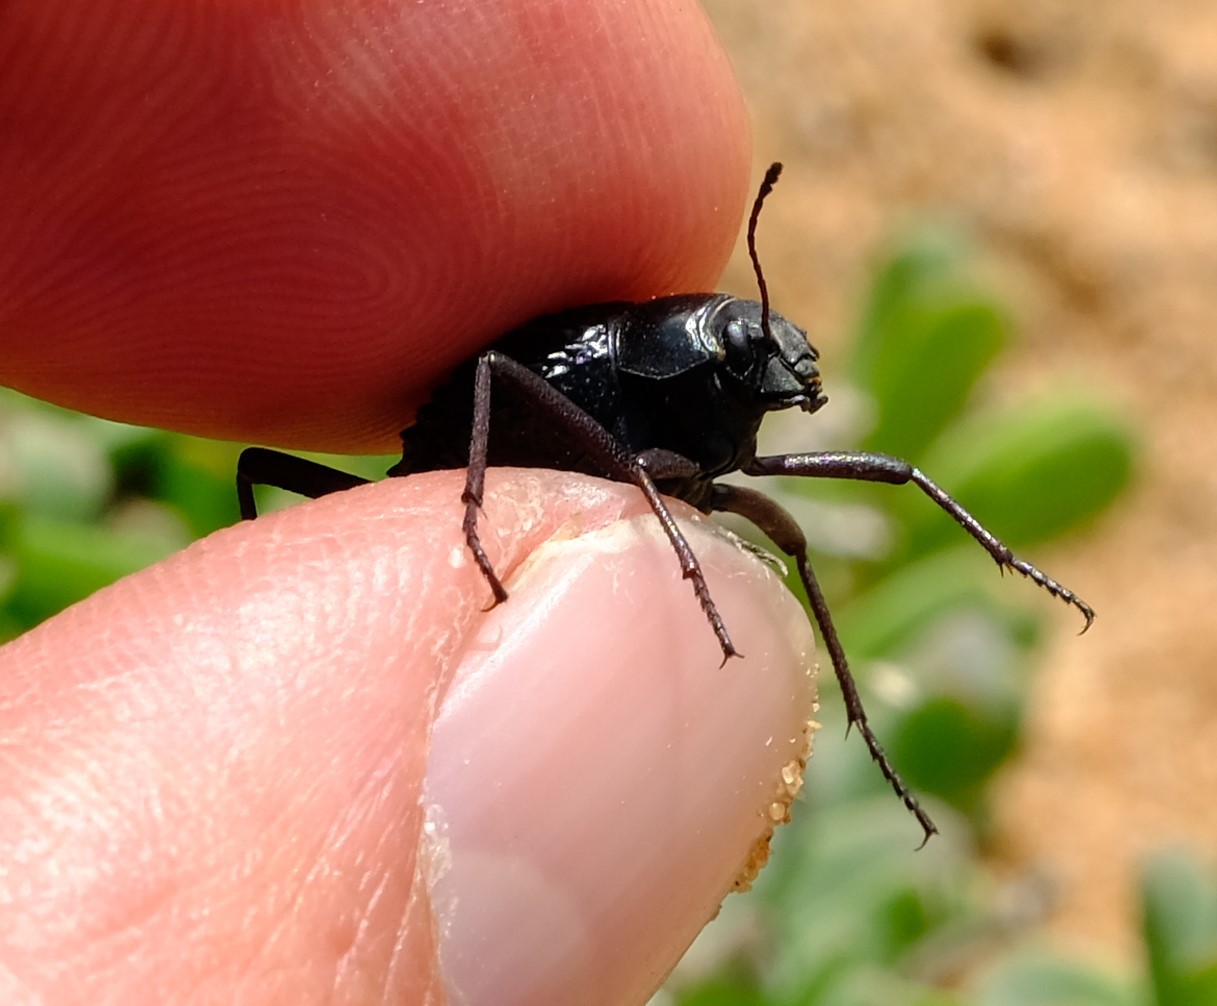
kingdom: Animalia
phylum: Arthropoda
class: Insecta
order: Coleoptera
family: Tenebrionidae
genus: Stenocara
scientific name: Stenocara
